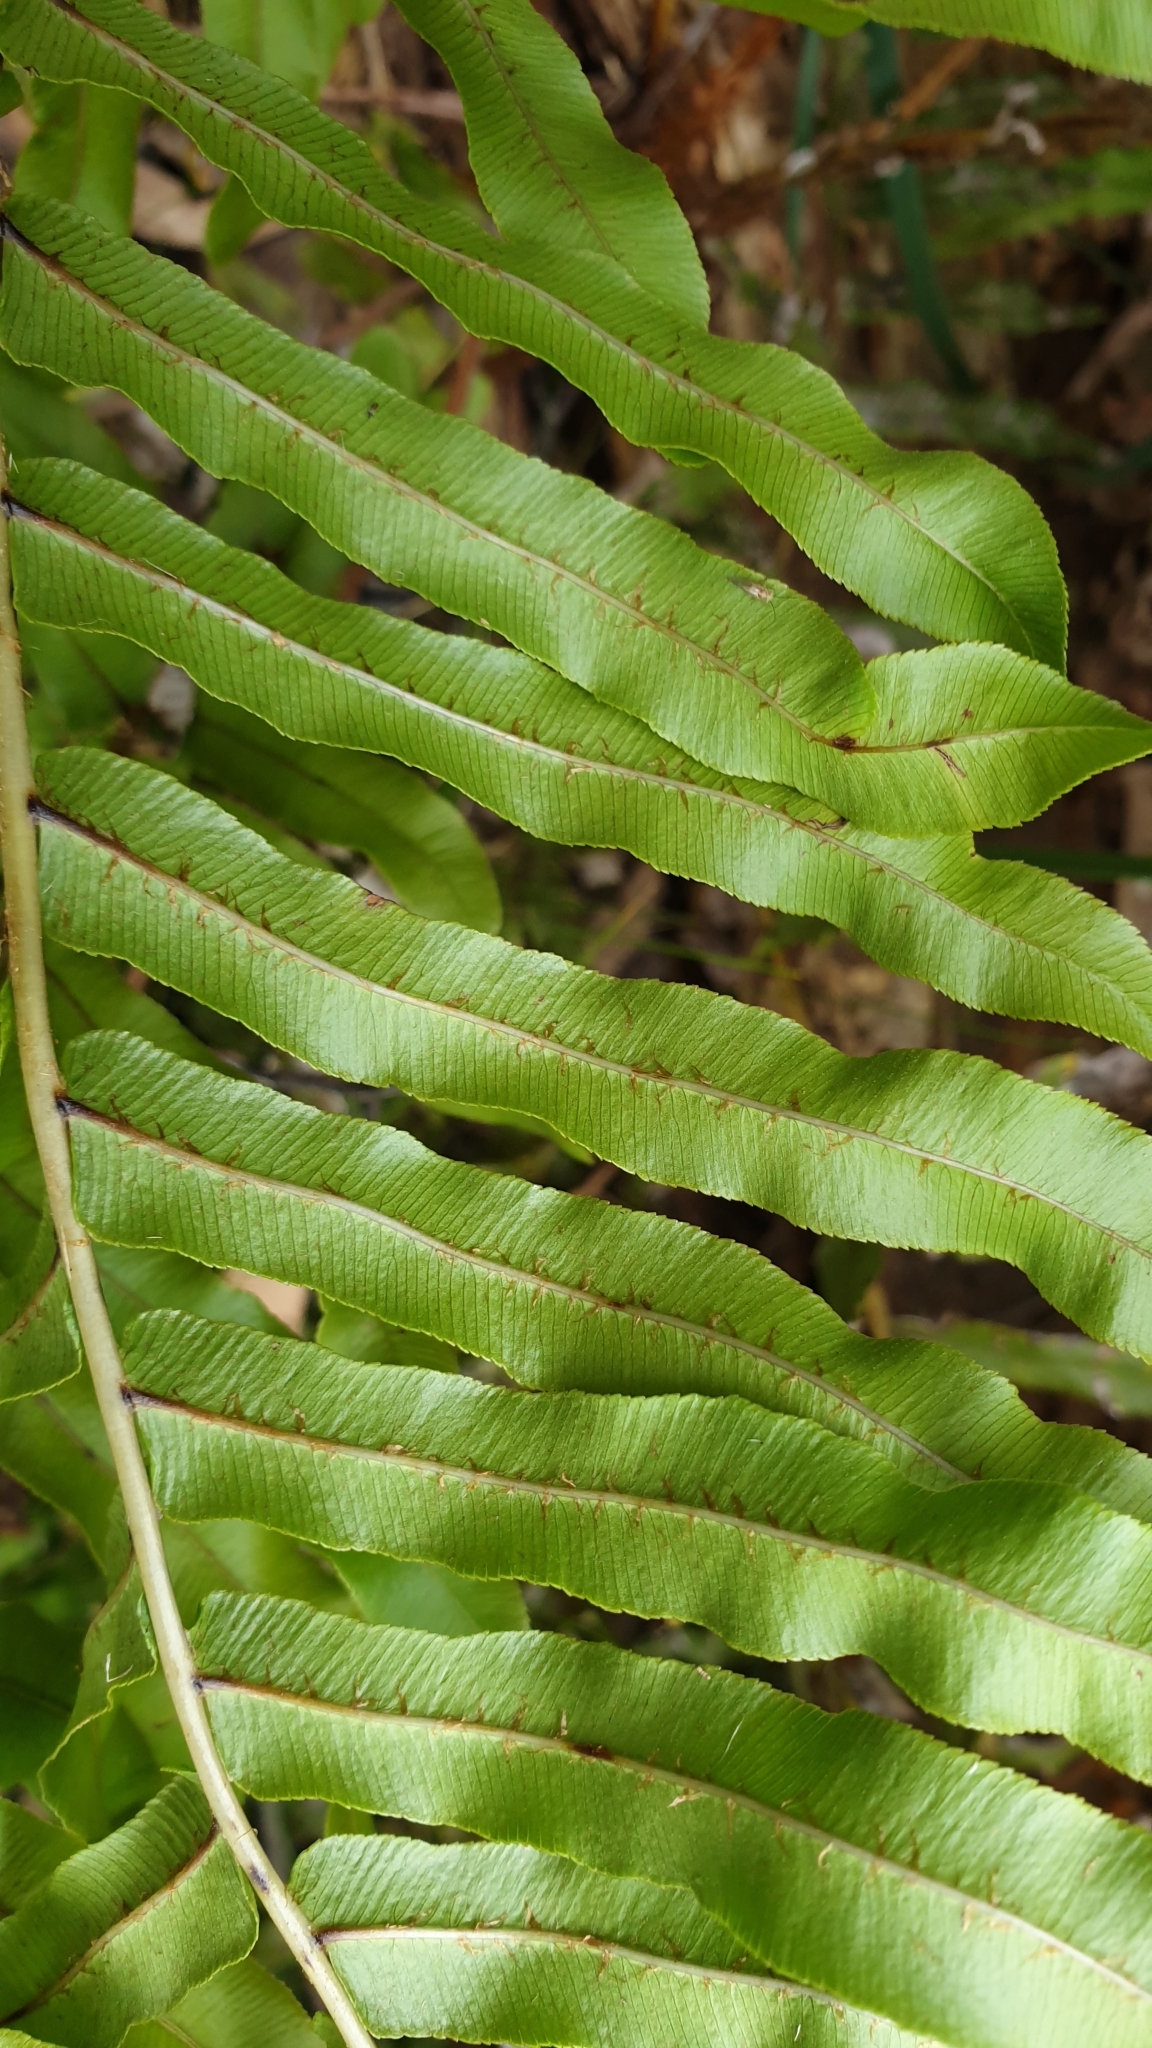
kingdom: Plantae
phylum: Tracheophyta
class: Polypodiopsida
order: Polypodiales
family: Blechnaceae
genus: Parablechnum
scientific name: Parablechnum minus
